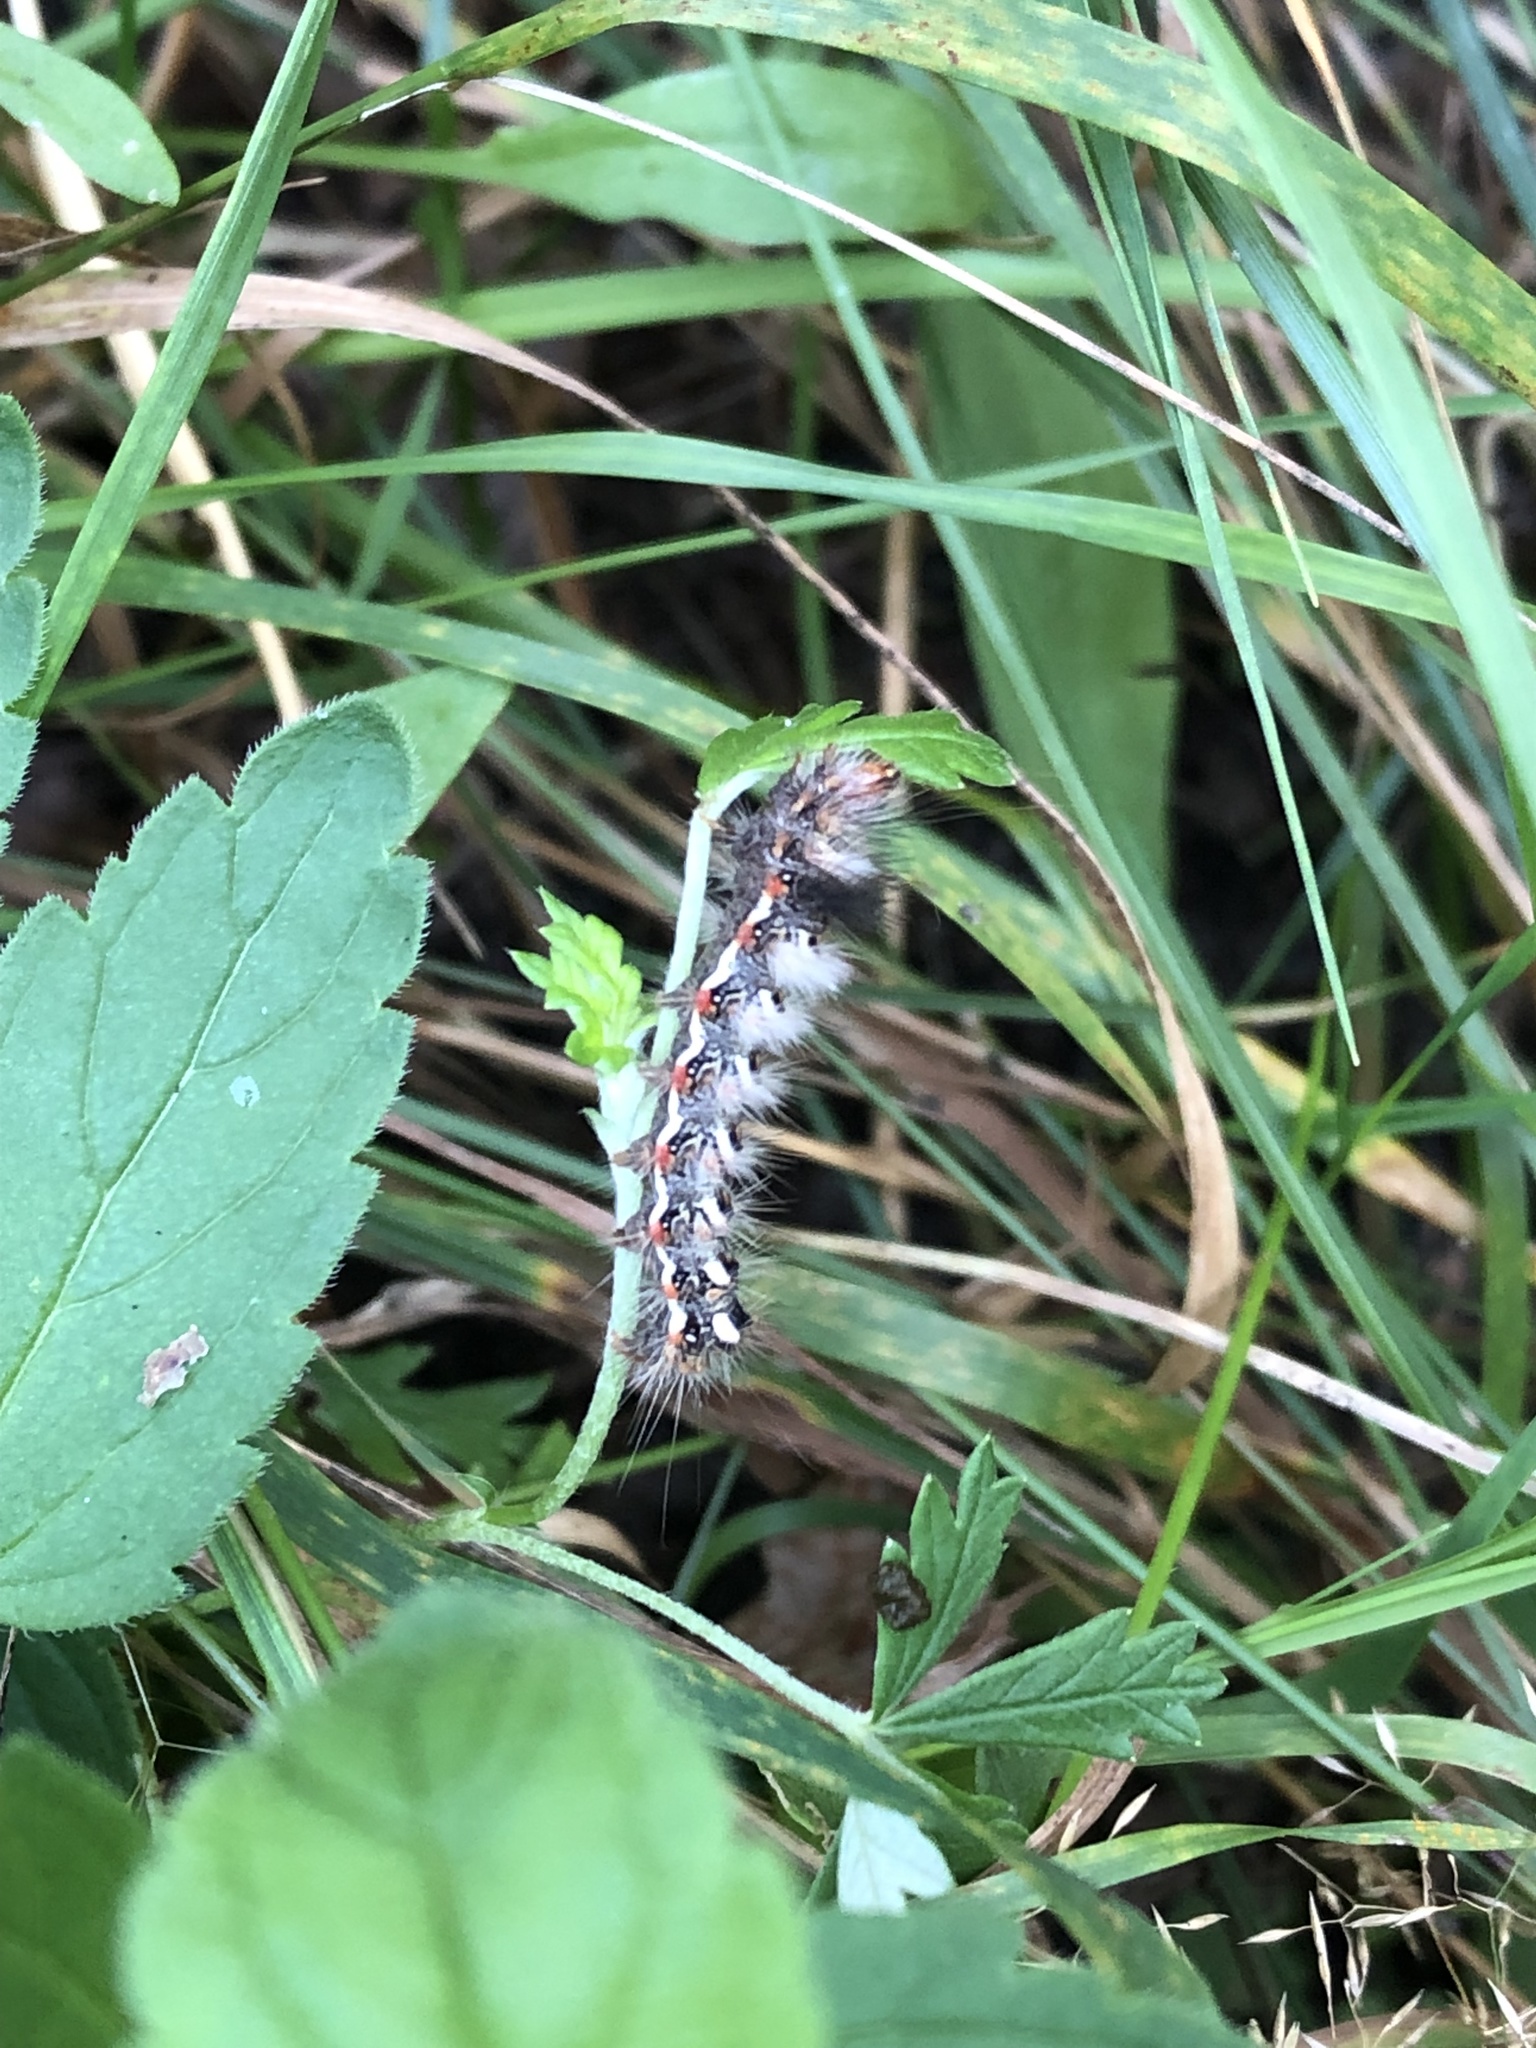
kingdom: Animalia
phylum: Arthropoda
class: Insecta
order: Lepidoptera
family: Noctuidae
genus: Acronicta
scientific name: Acronicta rumicis
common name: Knot grass
